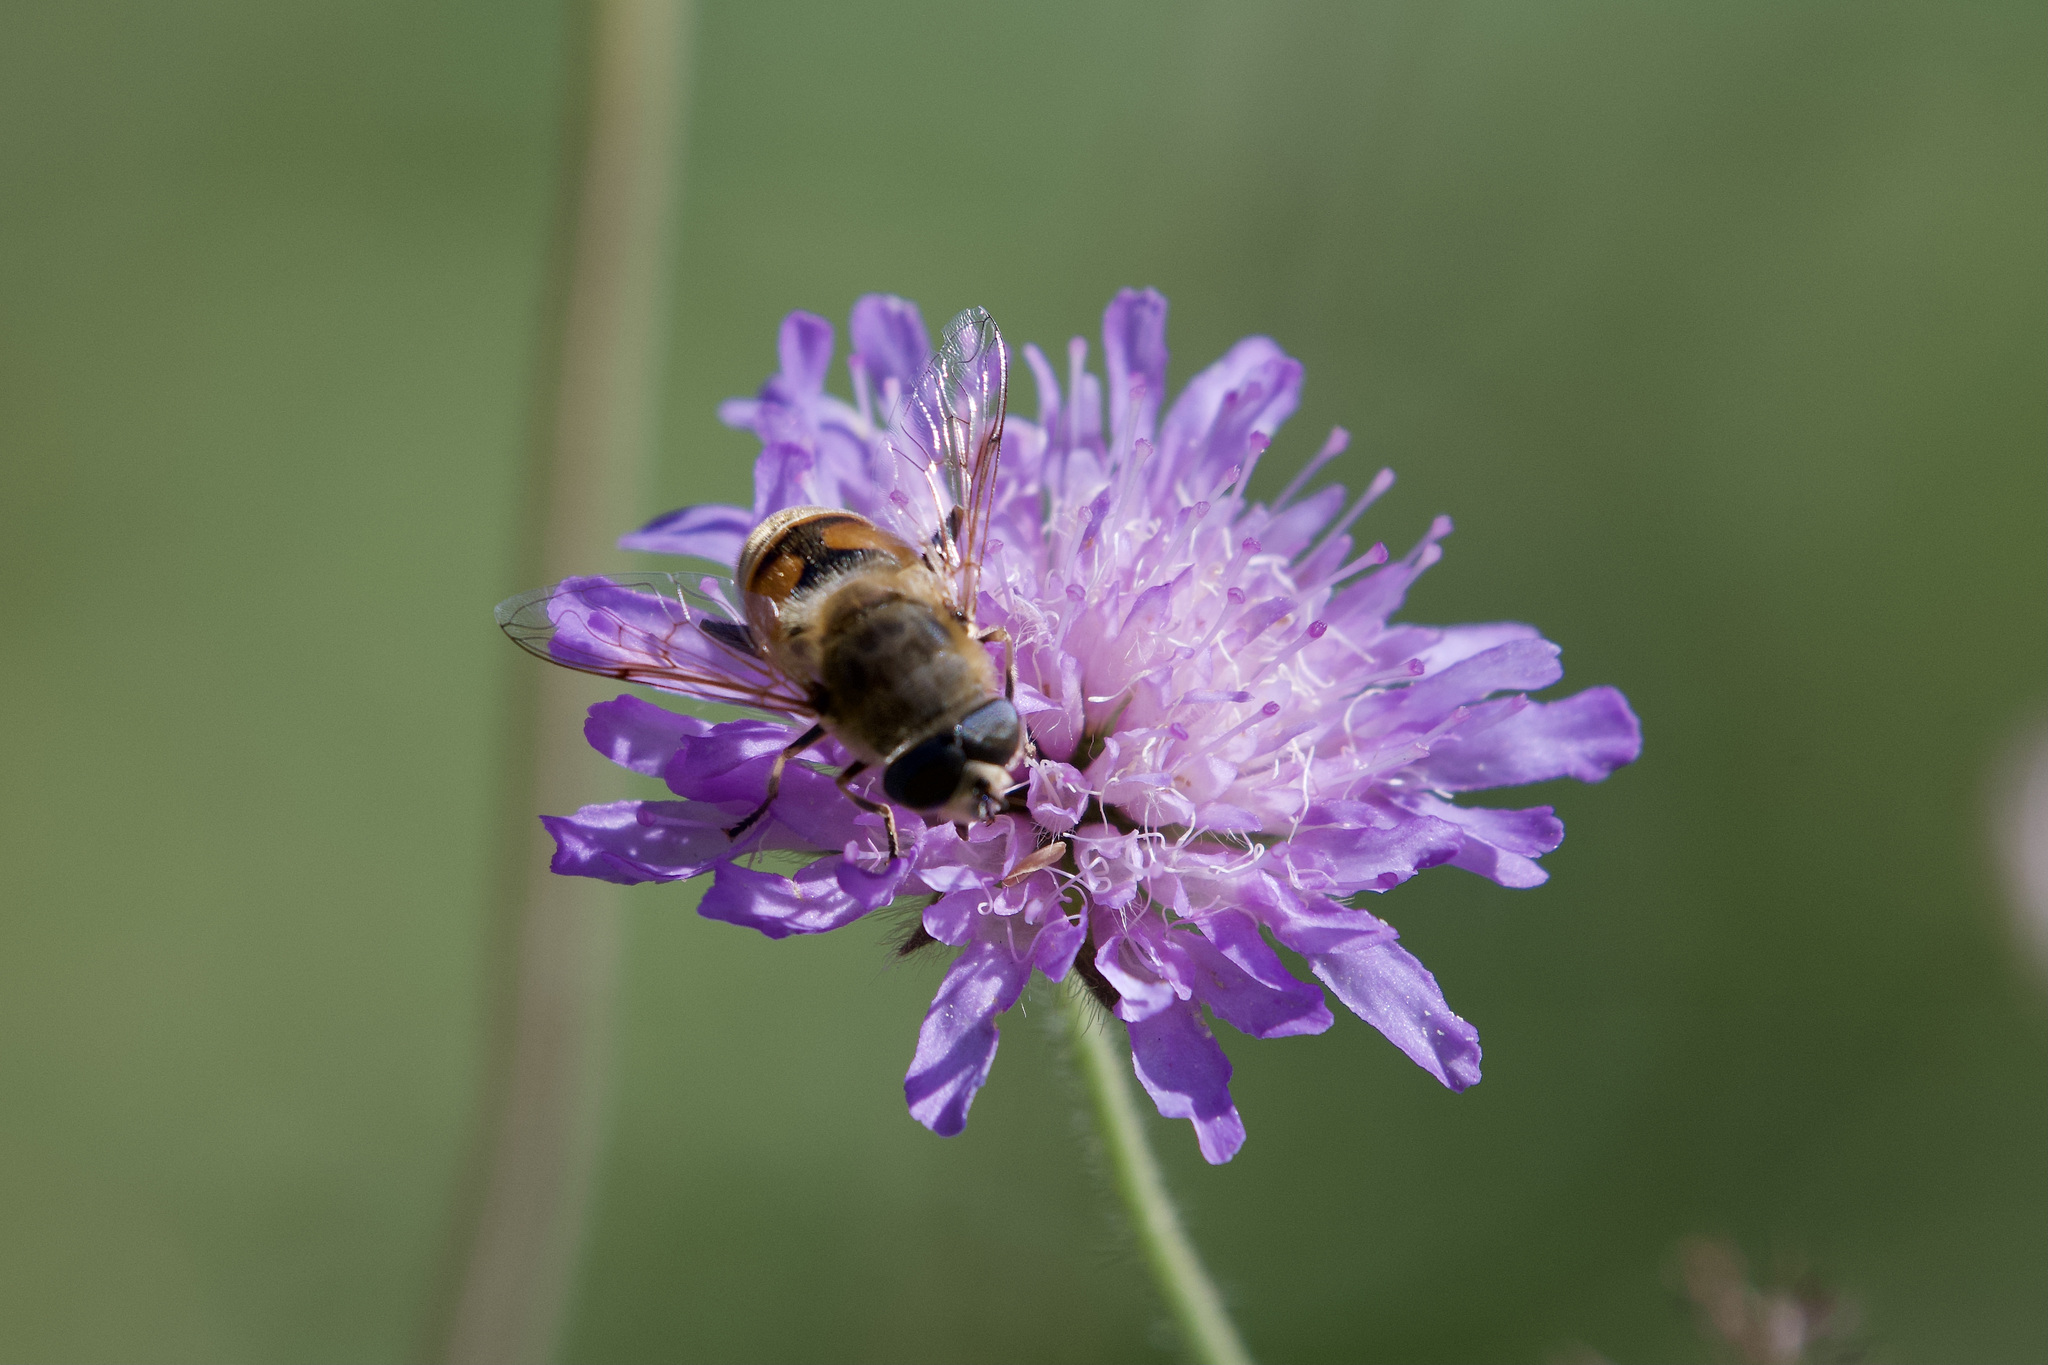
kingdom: Animalia
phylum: Arthropoda
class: Insecta
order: Diptera
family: Syrphidae
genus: Eristalis
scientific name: Eristalis tenax
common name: Drone fly
